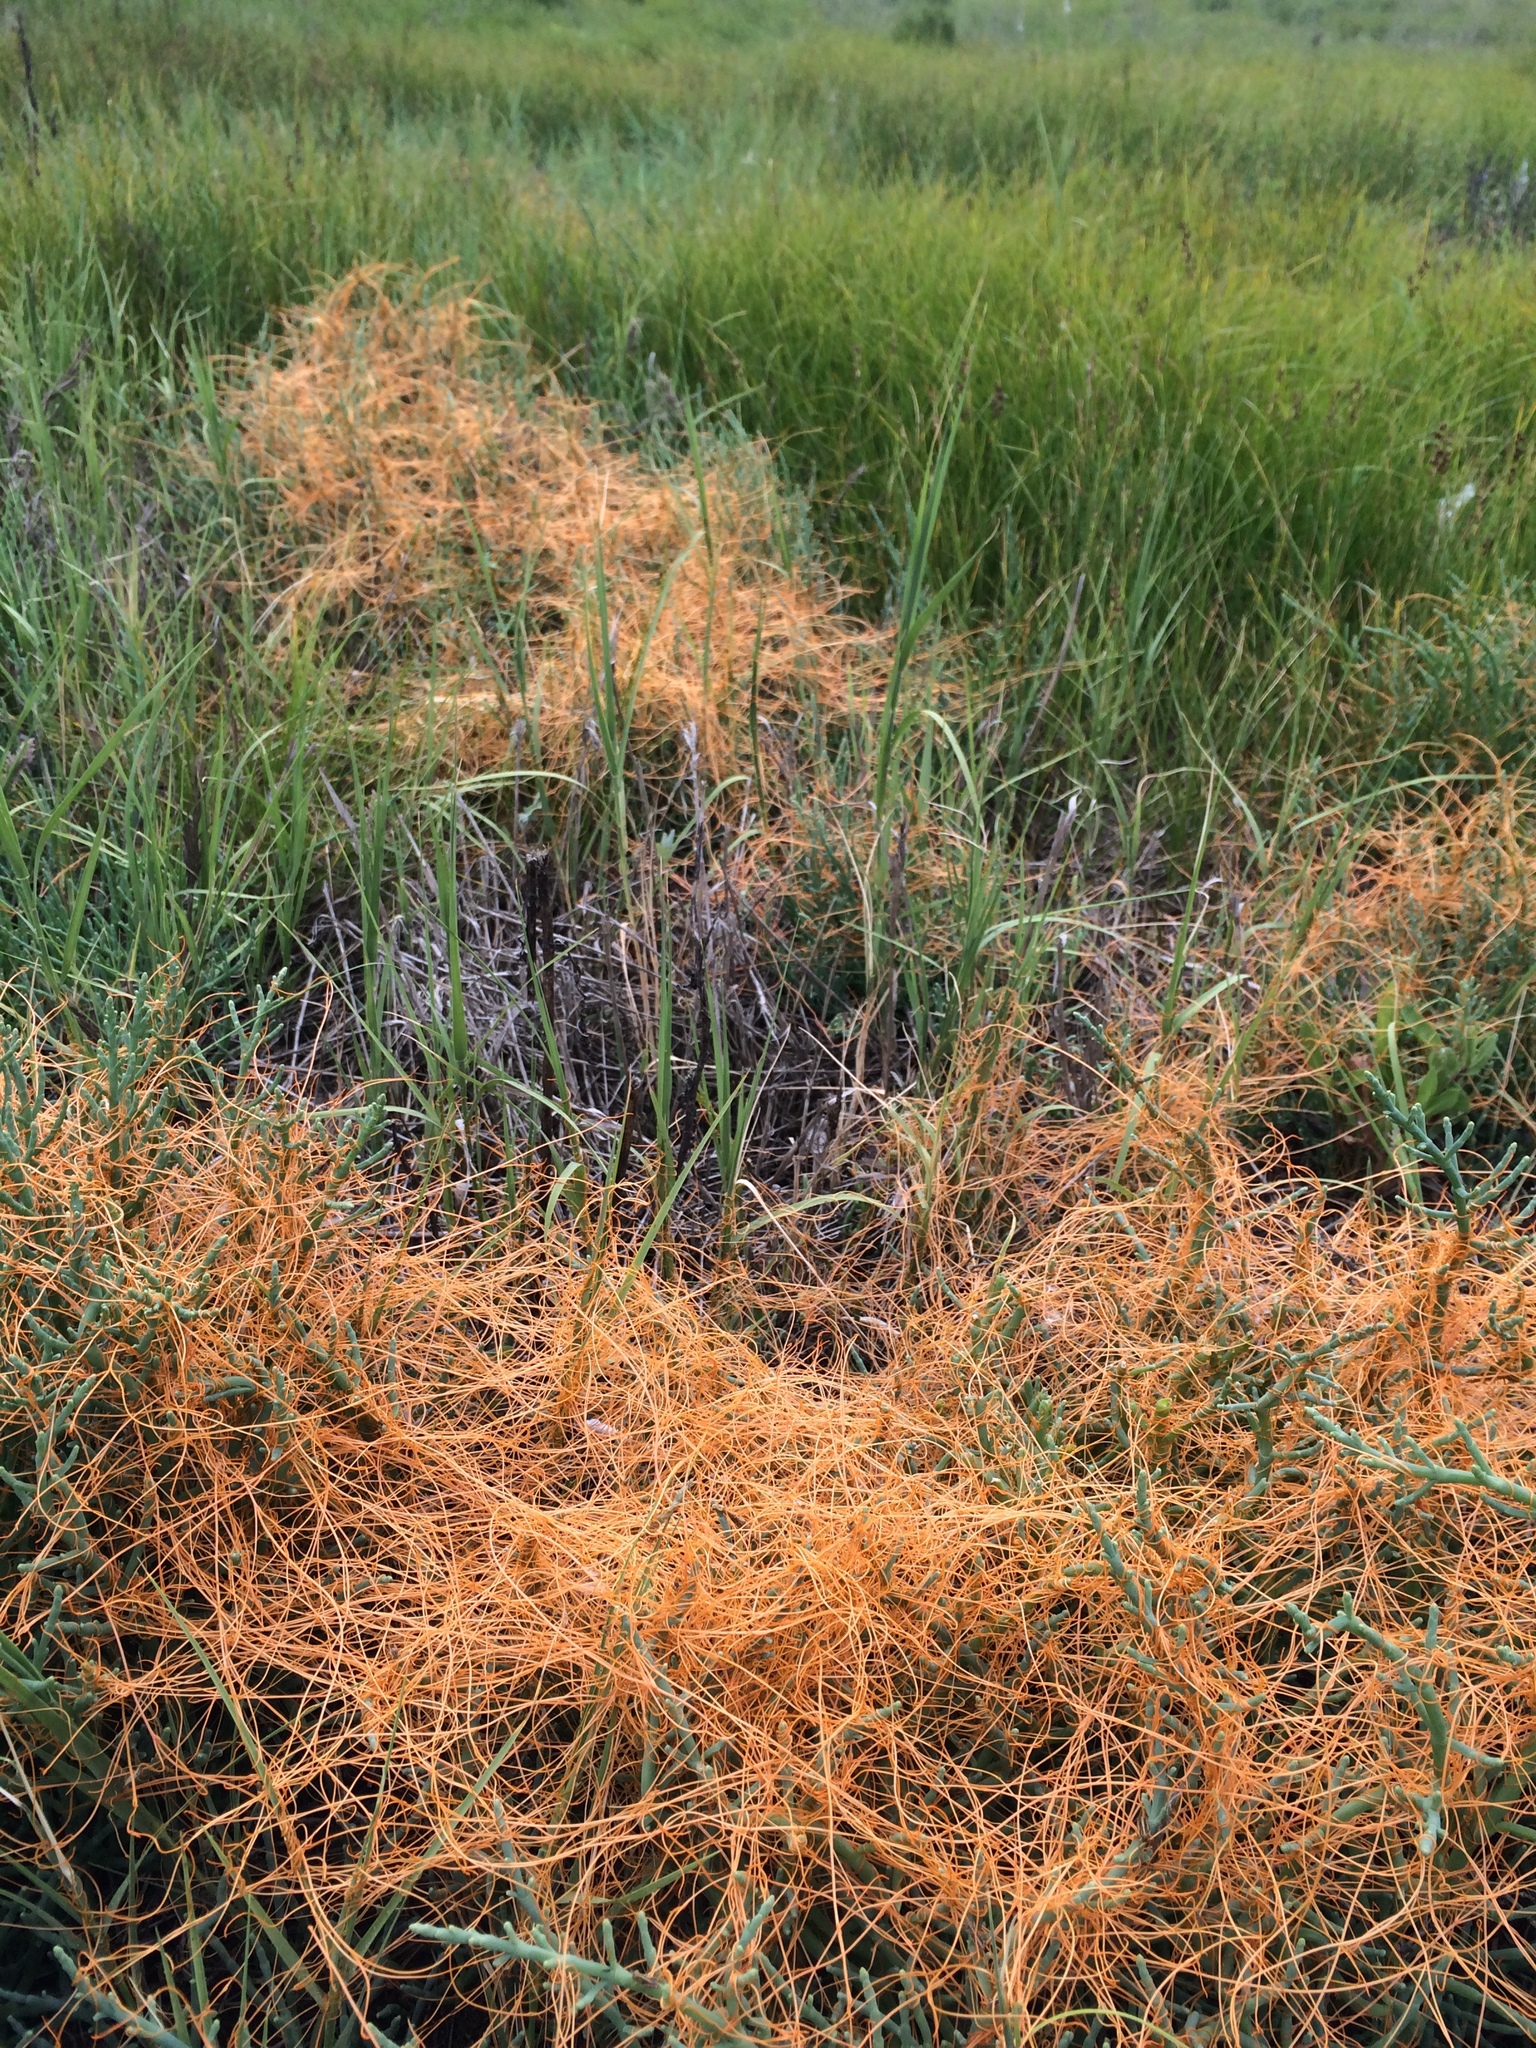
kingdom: Plantae
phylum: Tracheophyta
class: Magnoliopsida
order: Solanales
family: Convolvulaceae
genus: Cuscuta
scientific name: Cuscuta pacifica
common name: Large saltmarsh dodder
